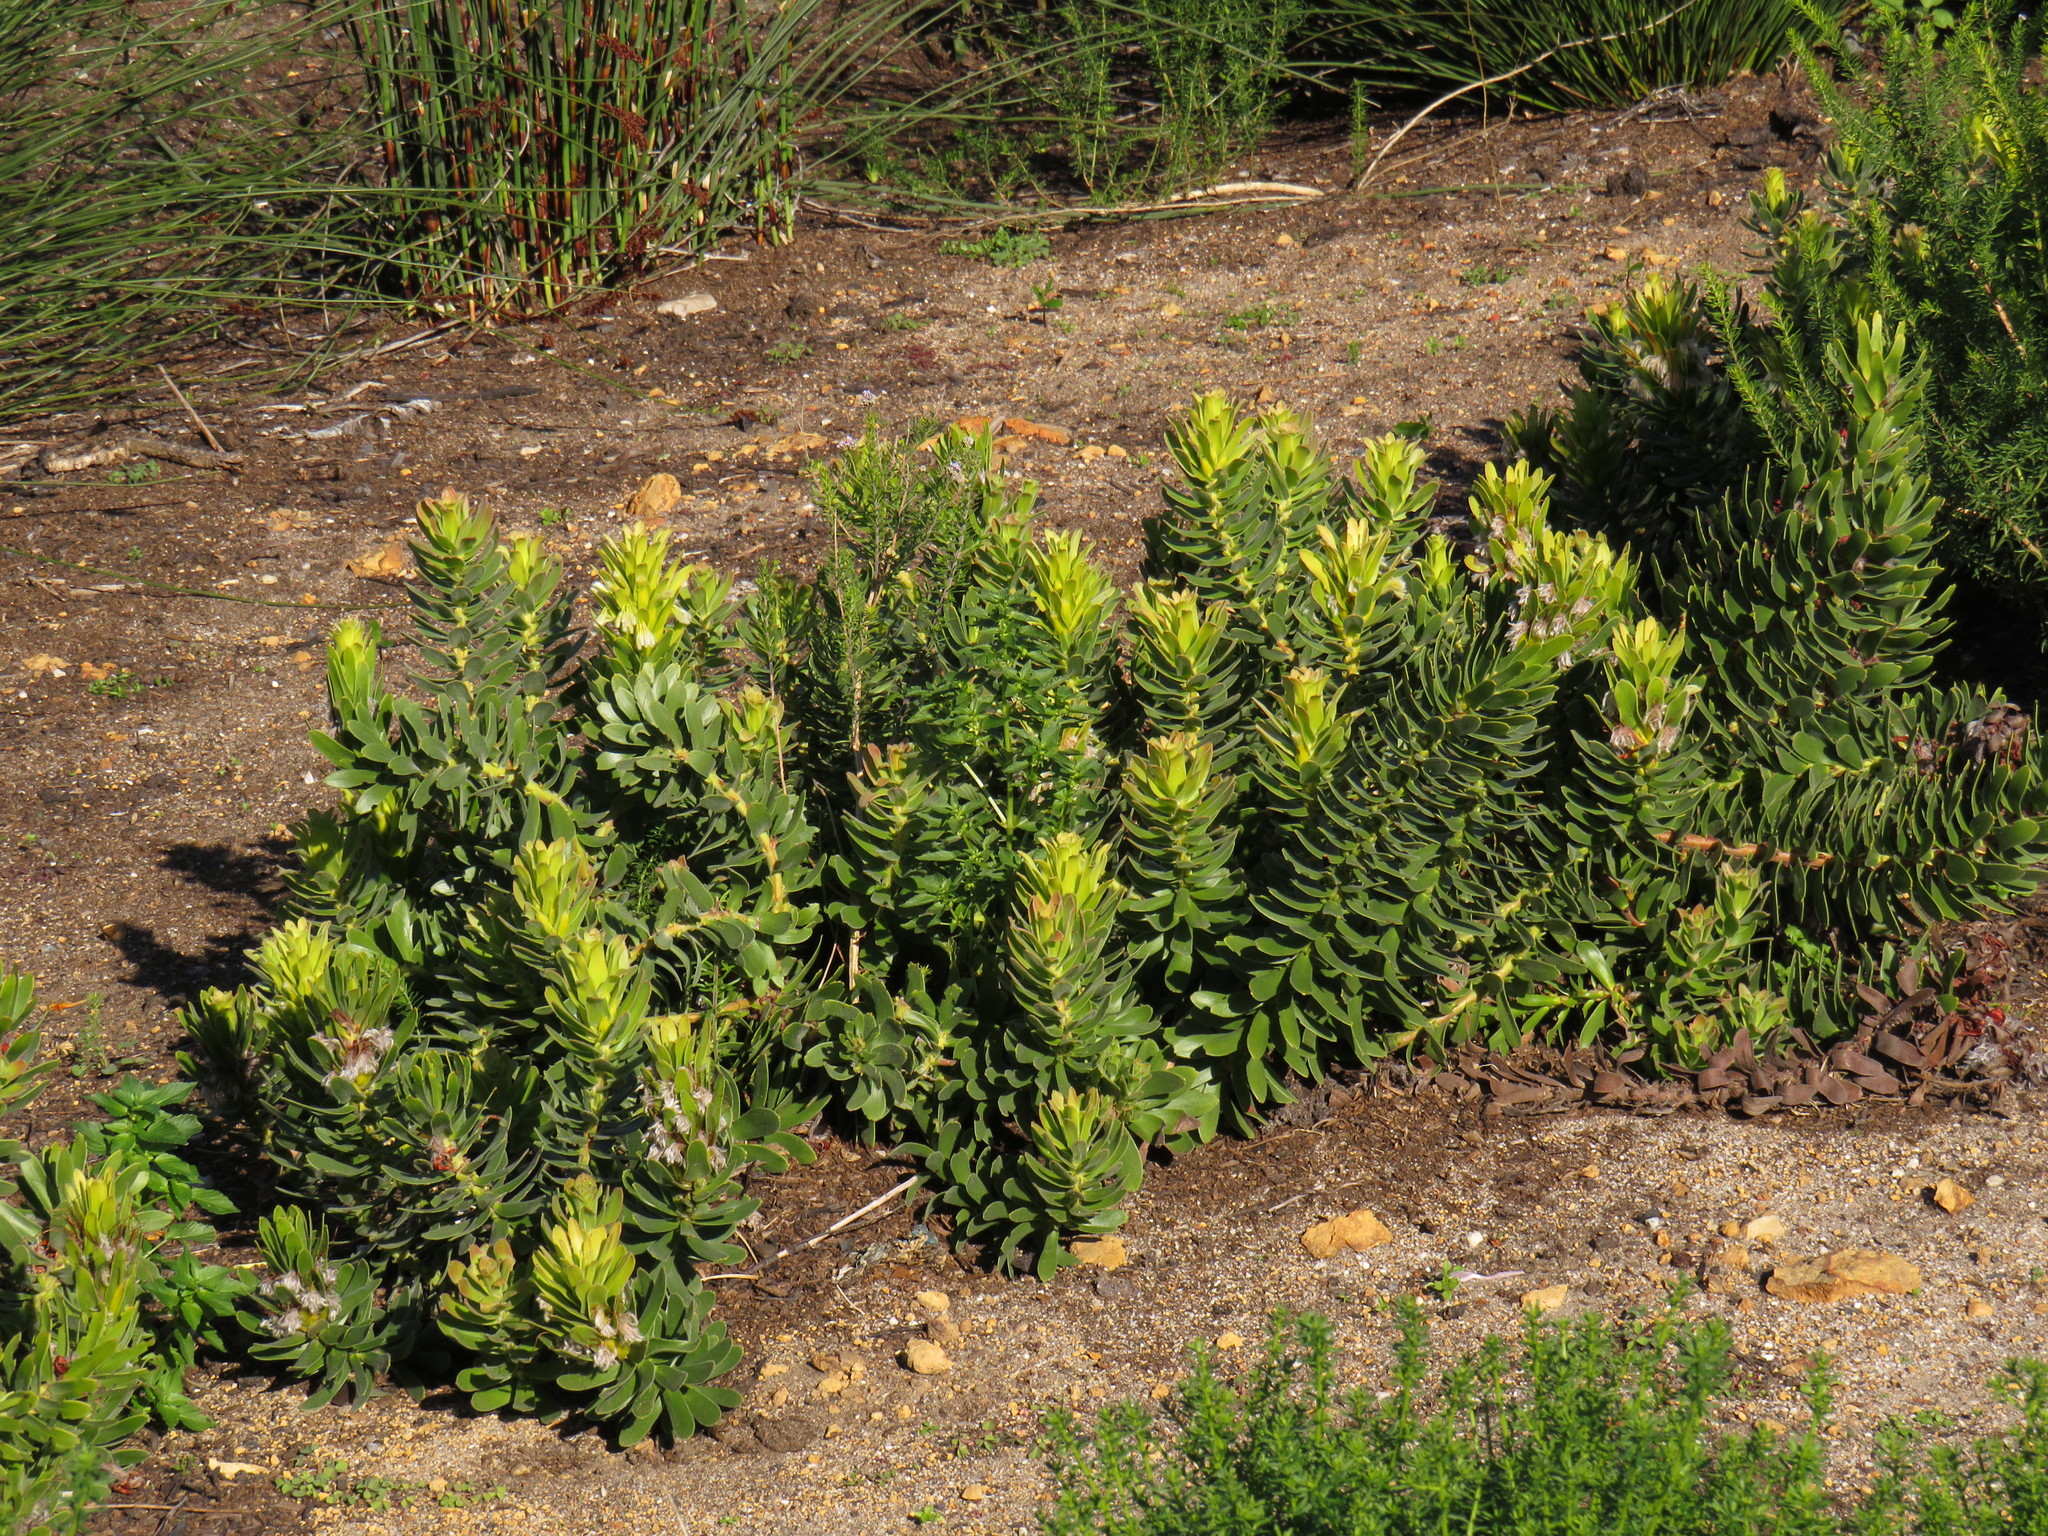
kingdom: Plantae
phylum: Tracheophyta
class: Magnoliopsida
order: Proteales
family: Proteaceae
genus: Mimetes
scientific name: Mimetes cucullatus
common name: Common pagoda
